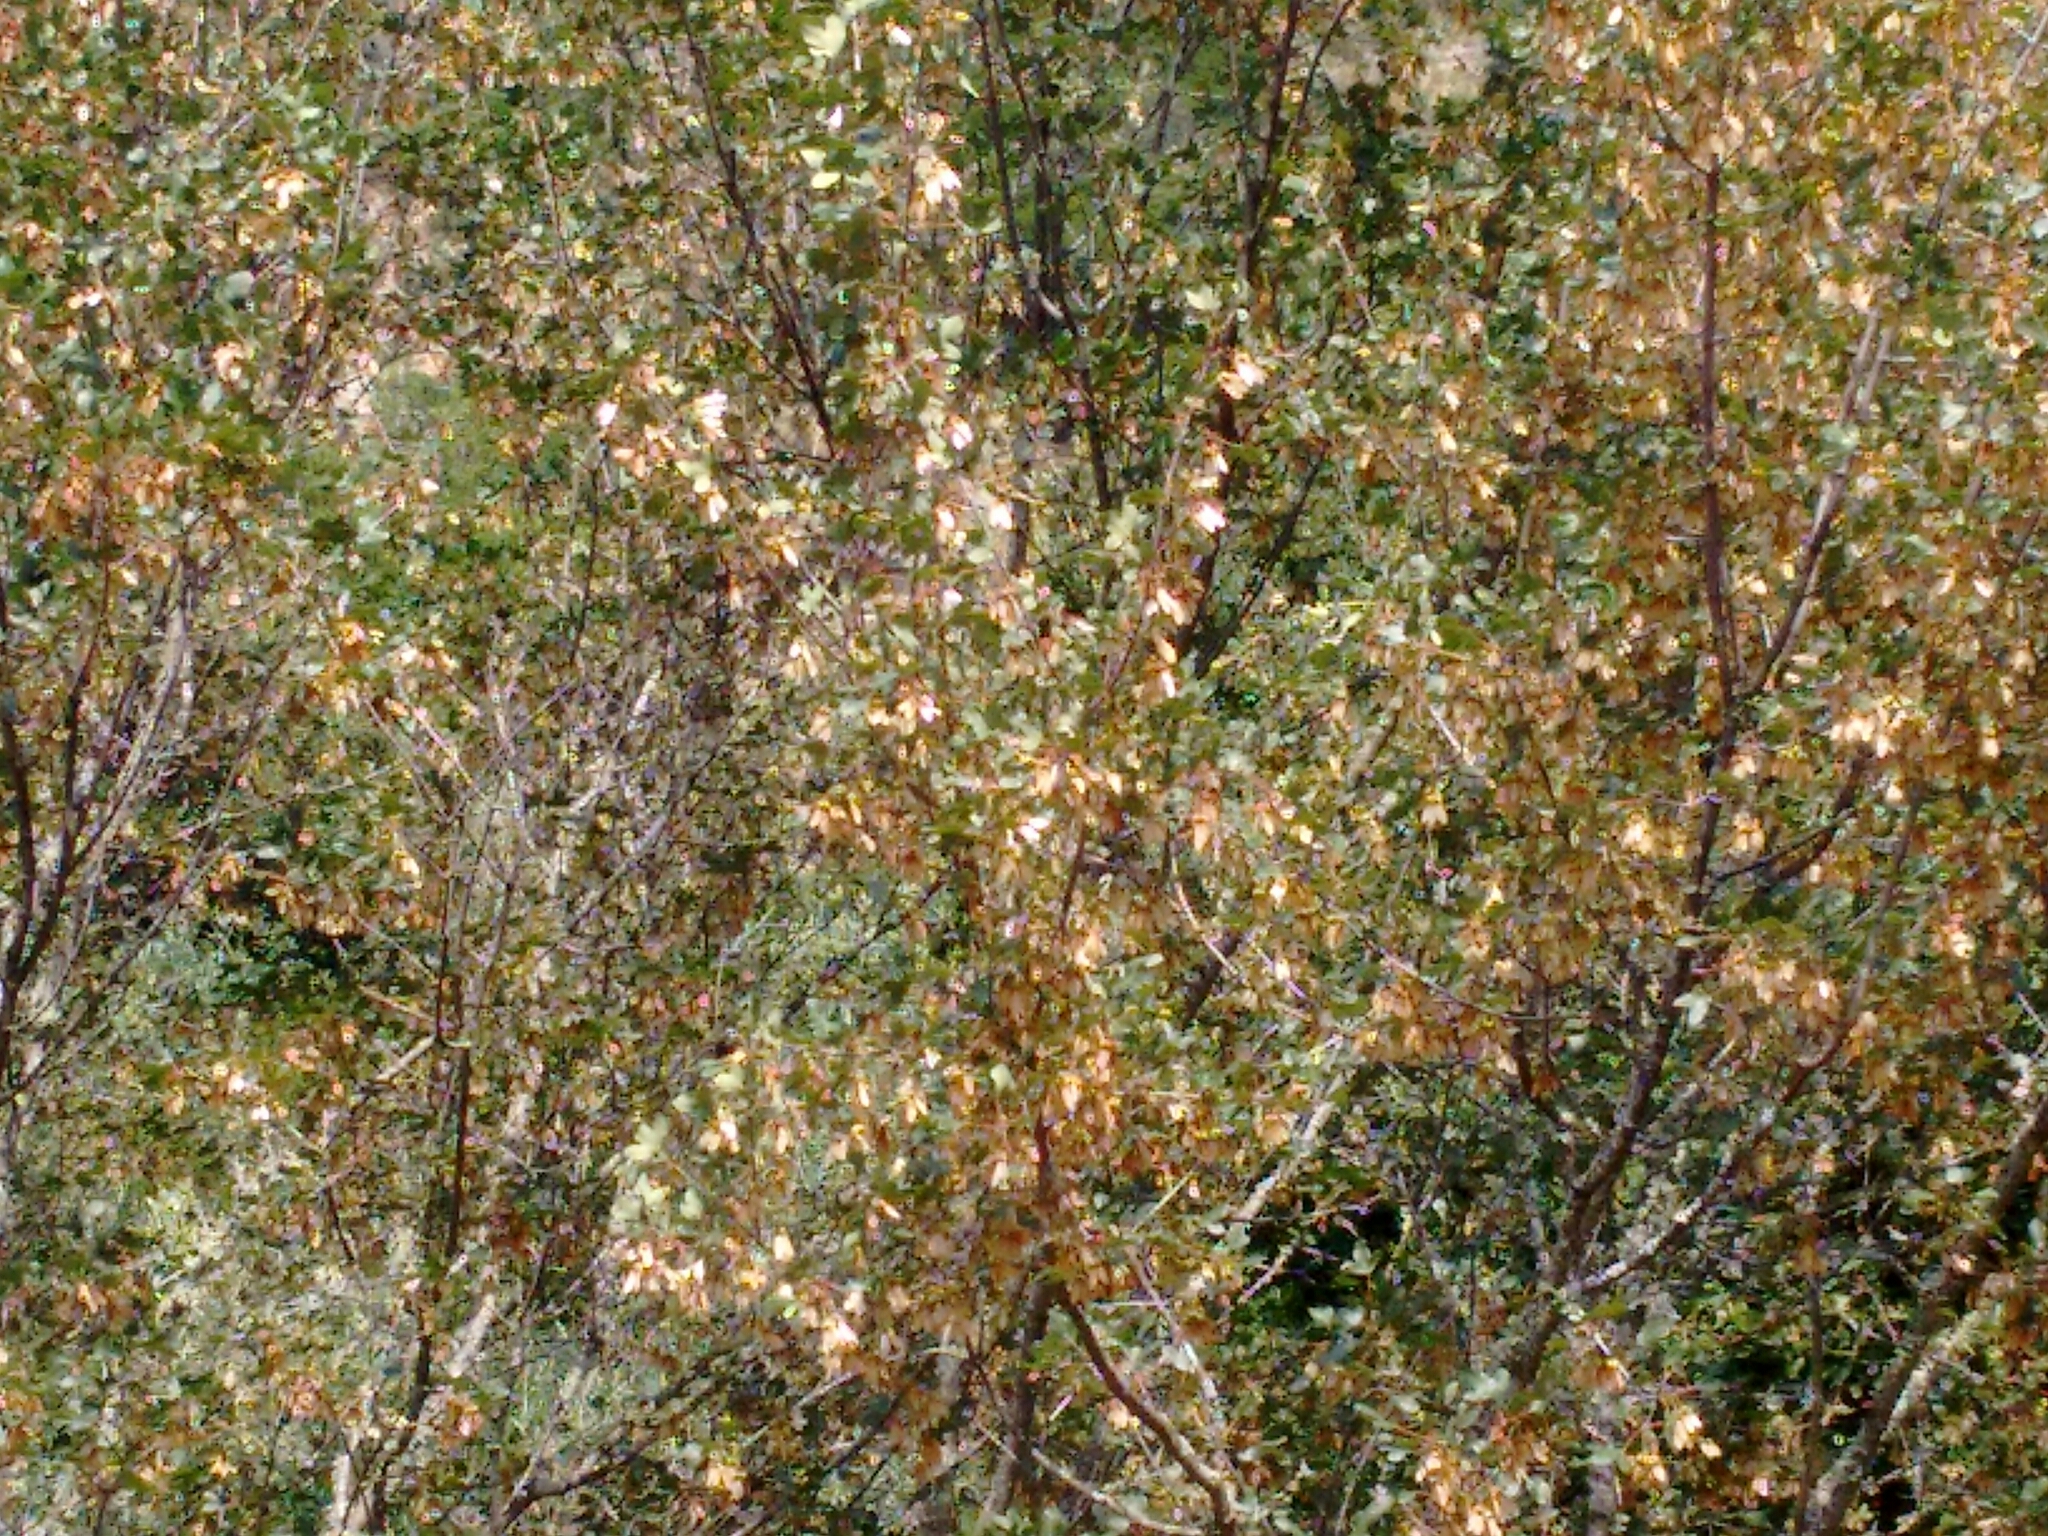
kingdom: Plantae
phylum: Tracheophyta
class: Magnoliopsida
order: Sapindales
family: Sapindaceae
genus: Acer
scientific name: Acer monspessulanum
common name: Montpellier maple
